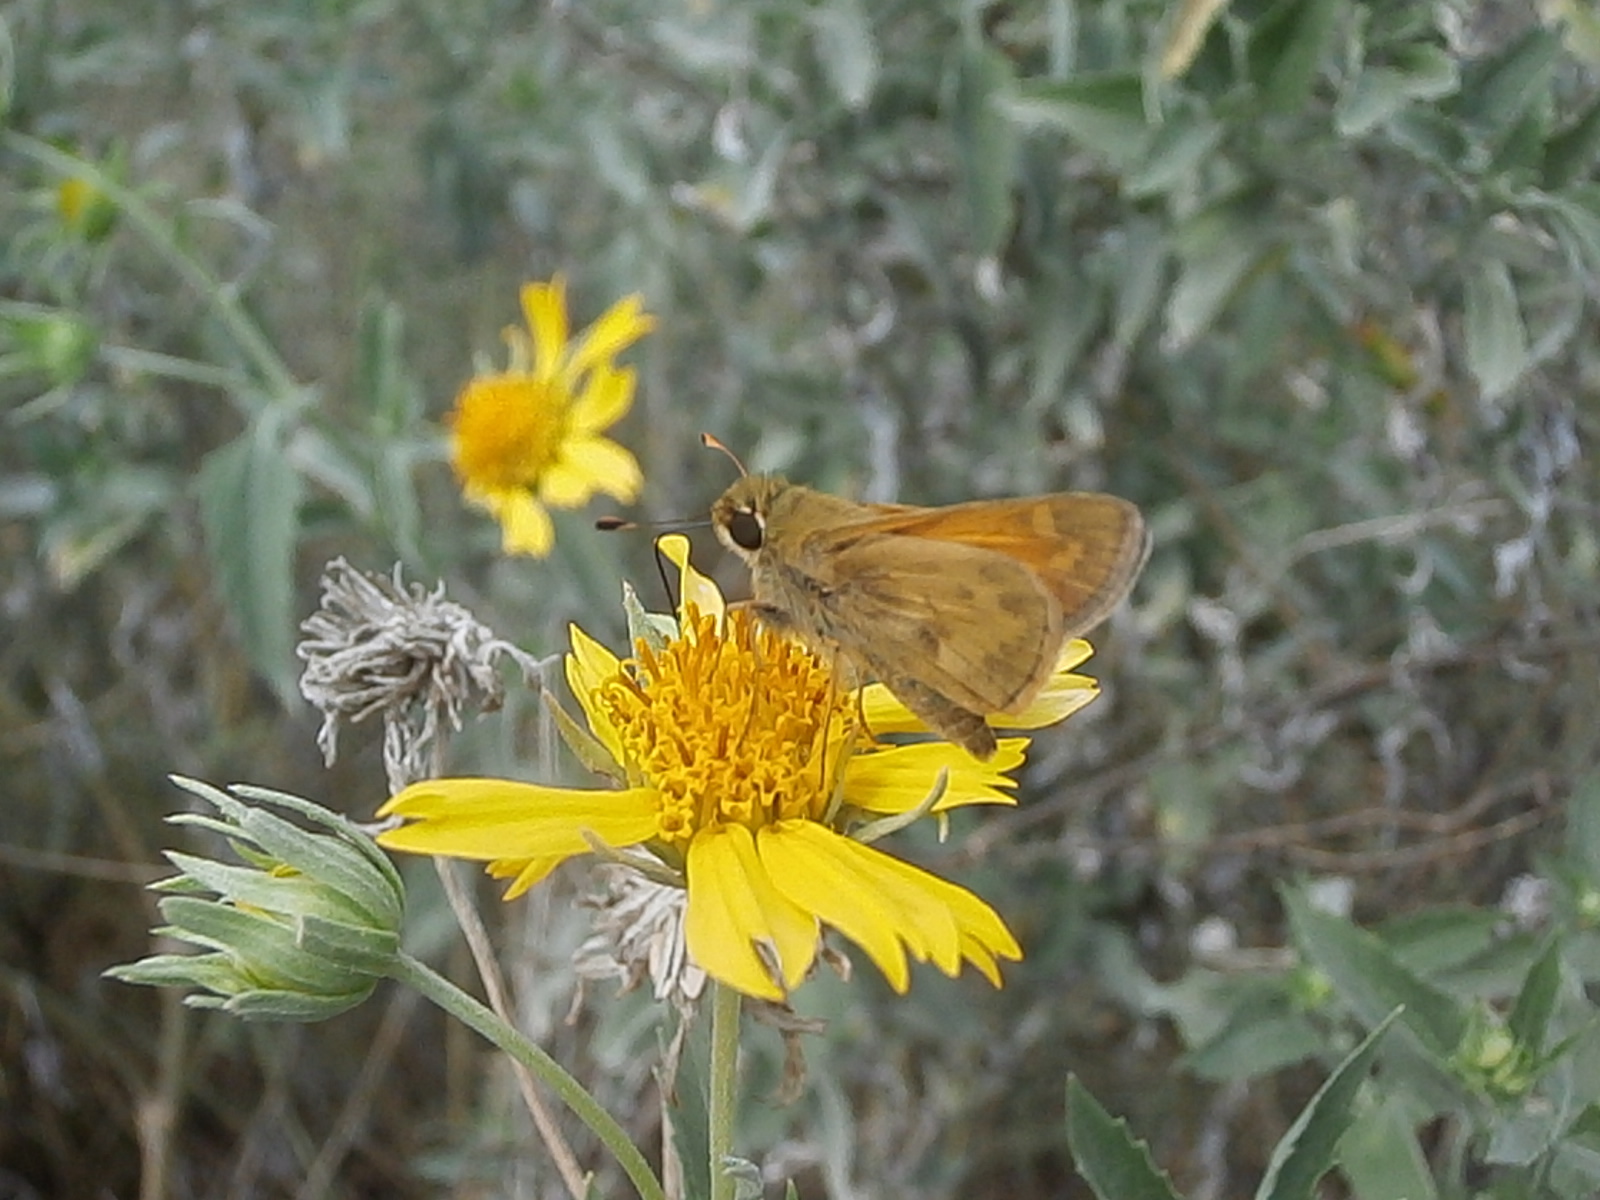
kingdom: Animalia
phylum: Arthropoda
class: Insecta
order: Lepidoptera
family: Hesperiidae
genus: Atalopedes
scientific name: Atalopedes
